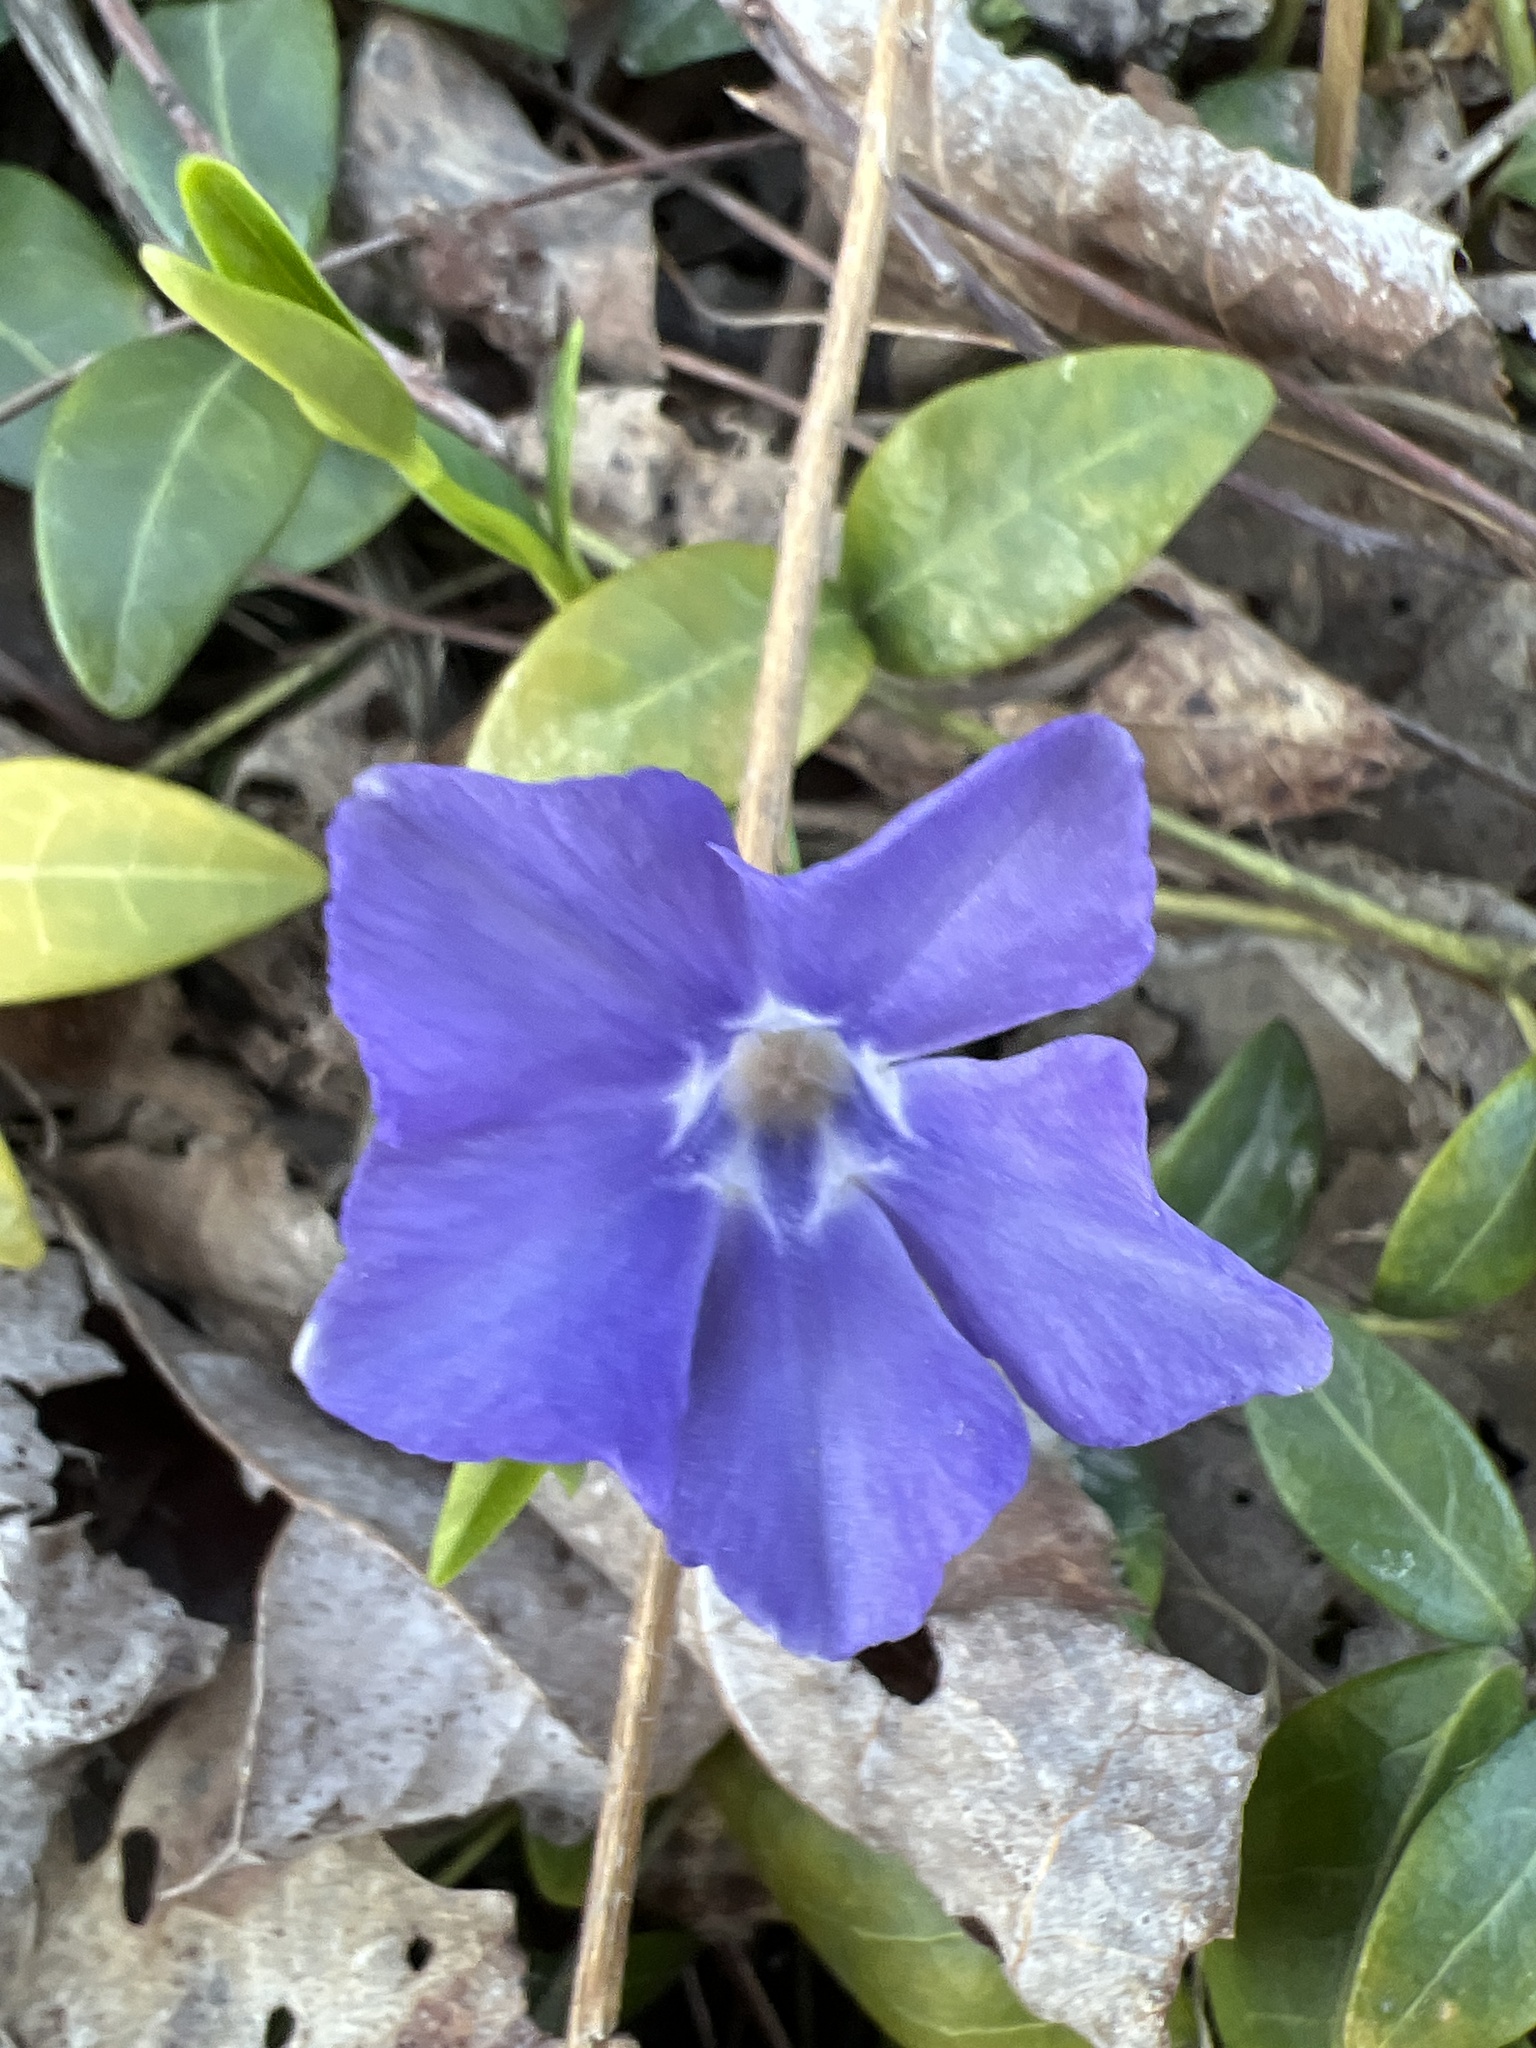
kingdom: Plantae
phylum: Tracheophyta
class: Magnoliopsida
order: Gentianales
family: Apocynaceae
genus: Vinca
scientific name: Vinca minor
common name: Lesser periwinkle
